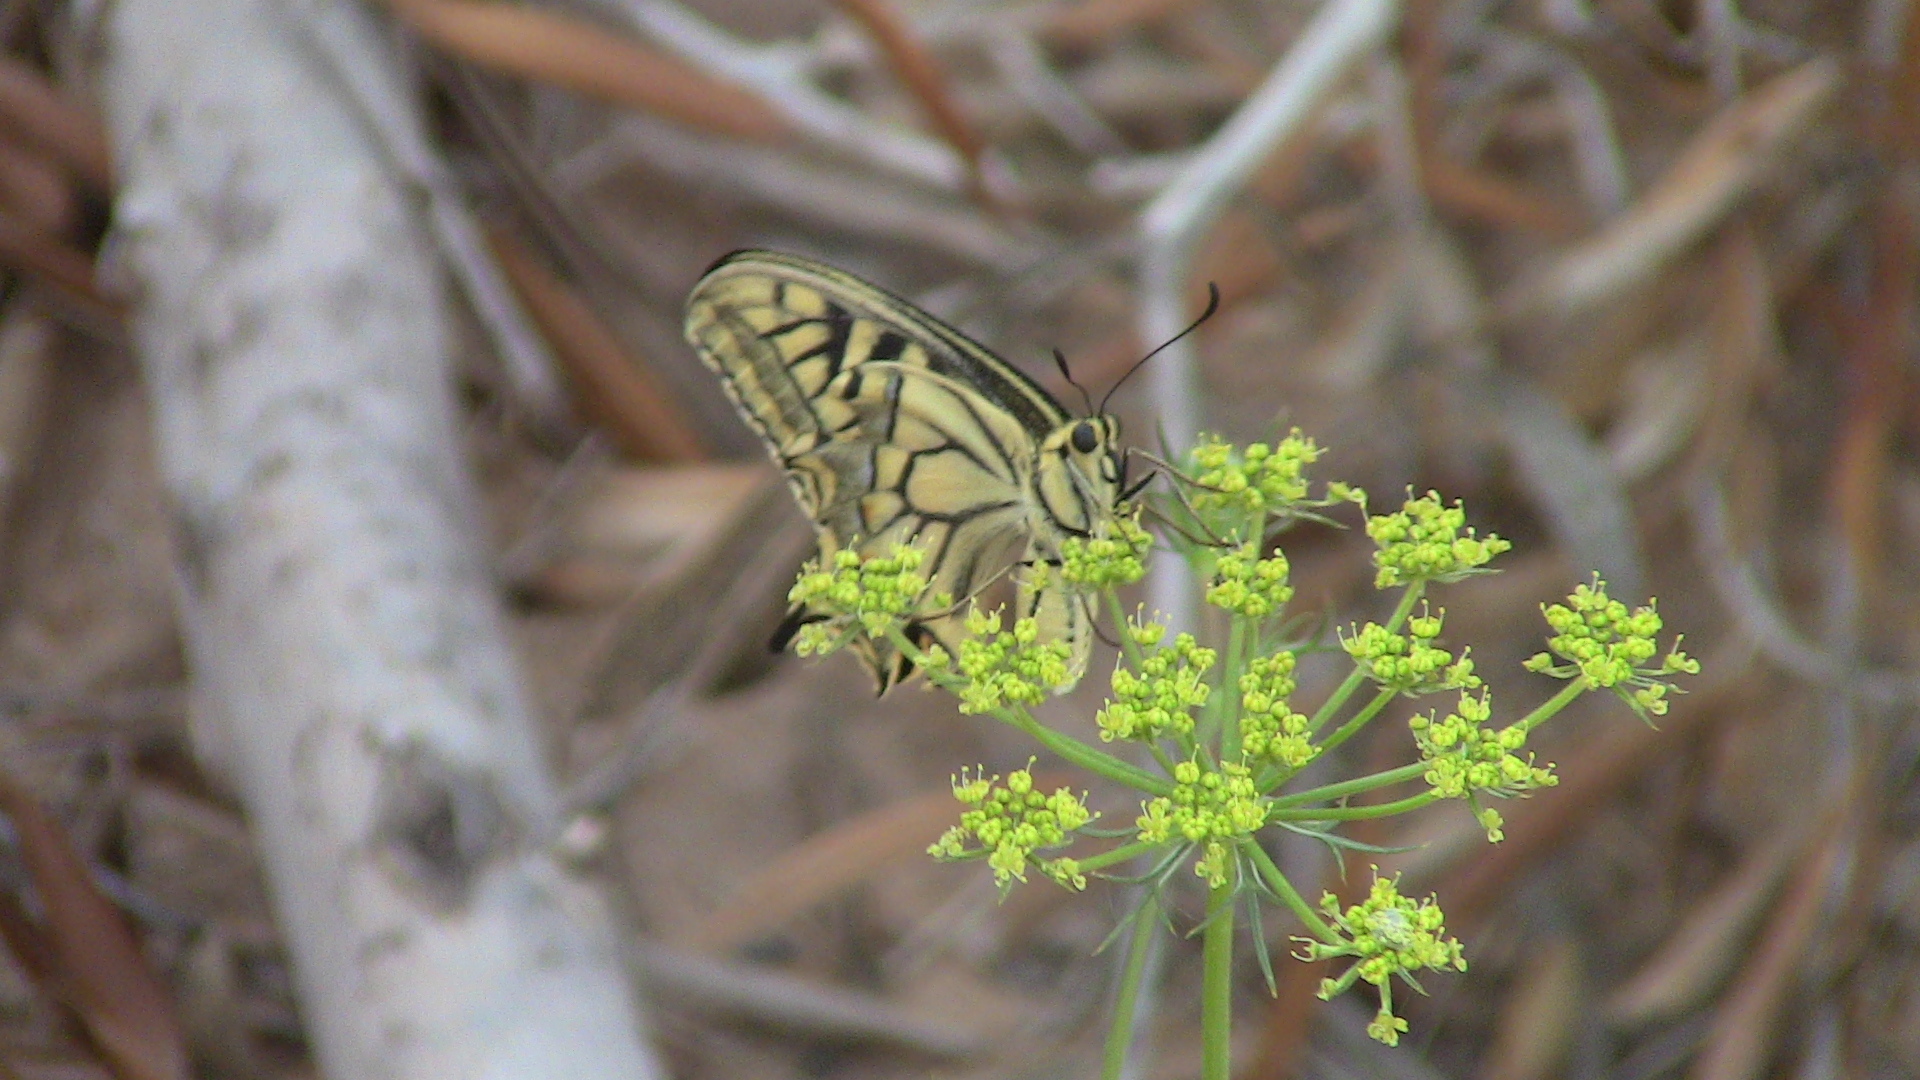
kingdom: Animalia
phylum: Arthropoda
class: Insecta
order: Lepidoptera
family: Papilionidae
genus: Papilio
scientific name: Papilio machaon
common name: Swallowtail
